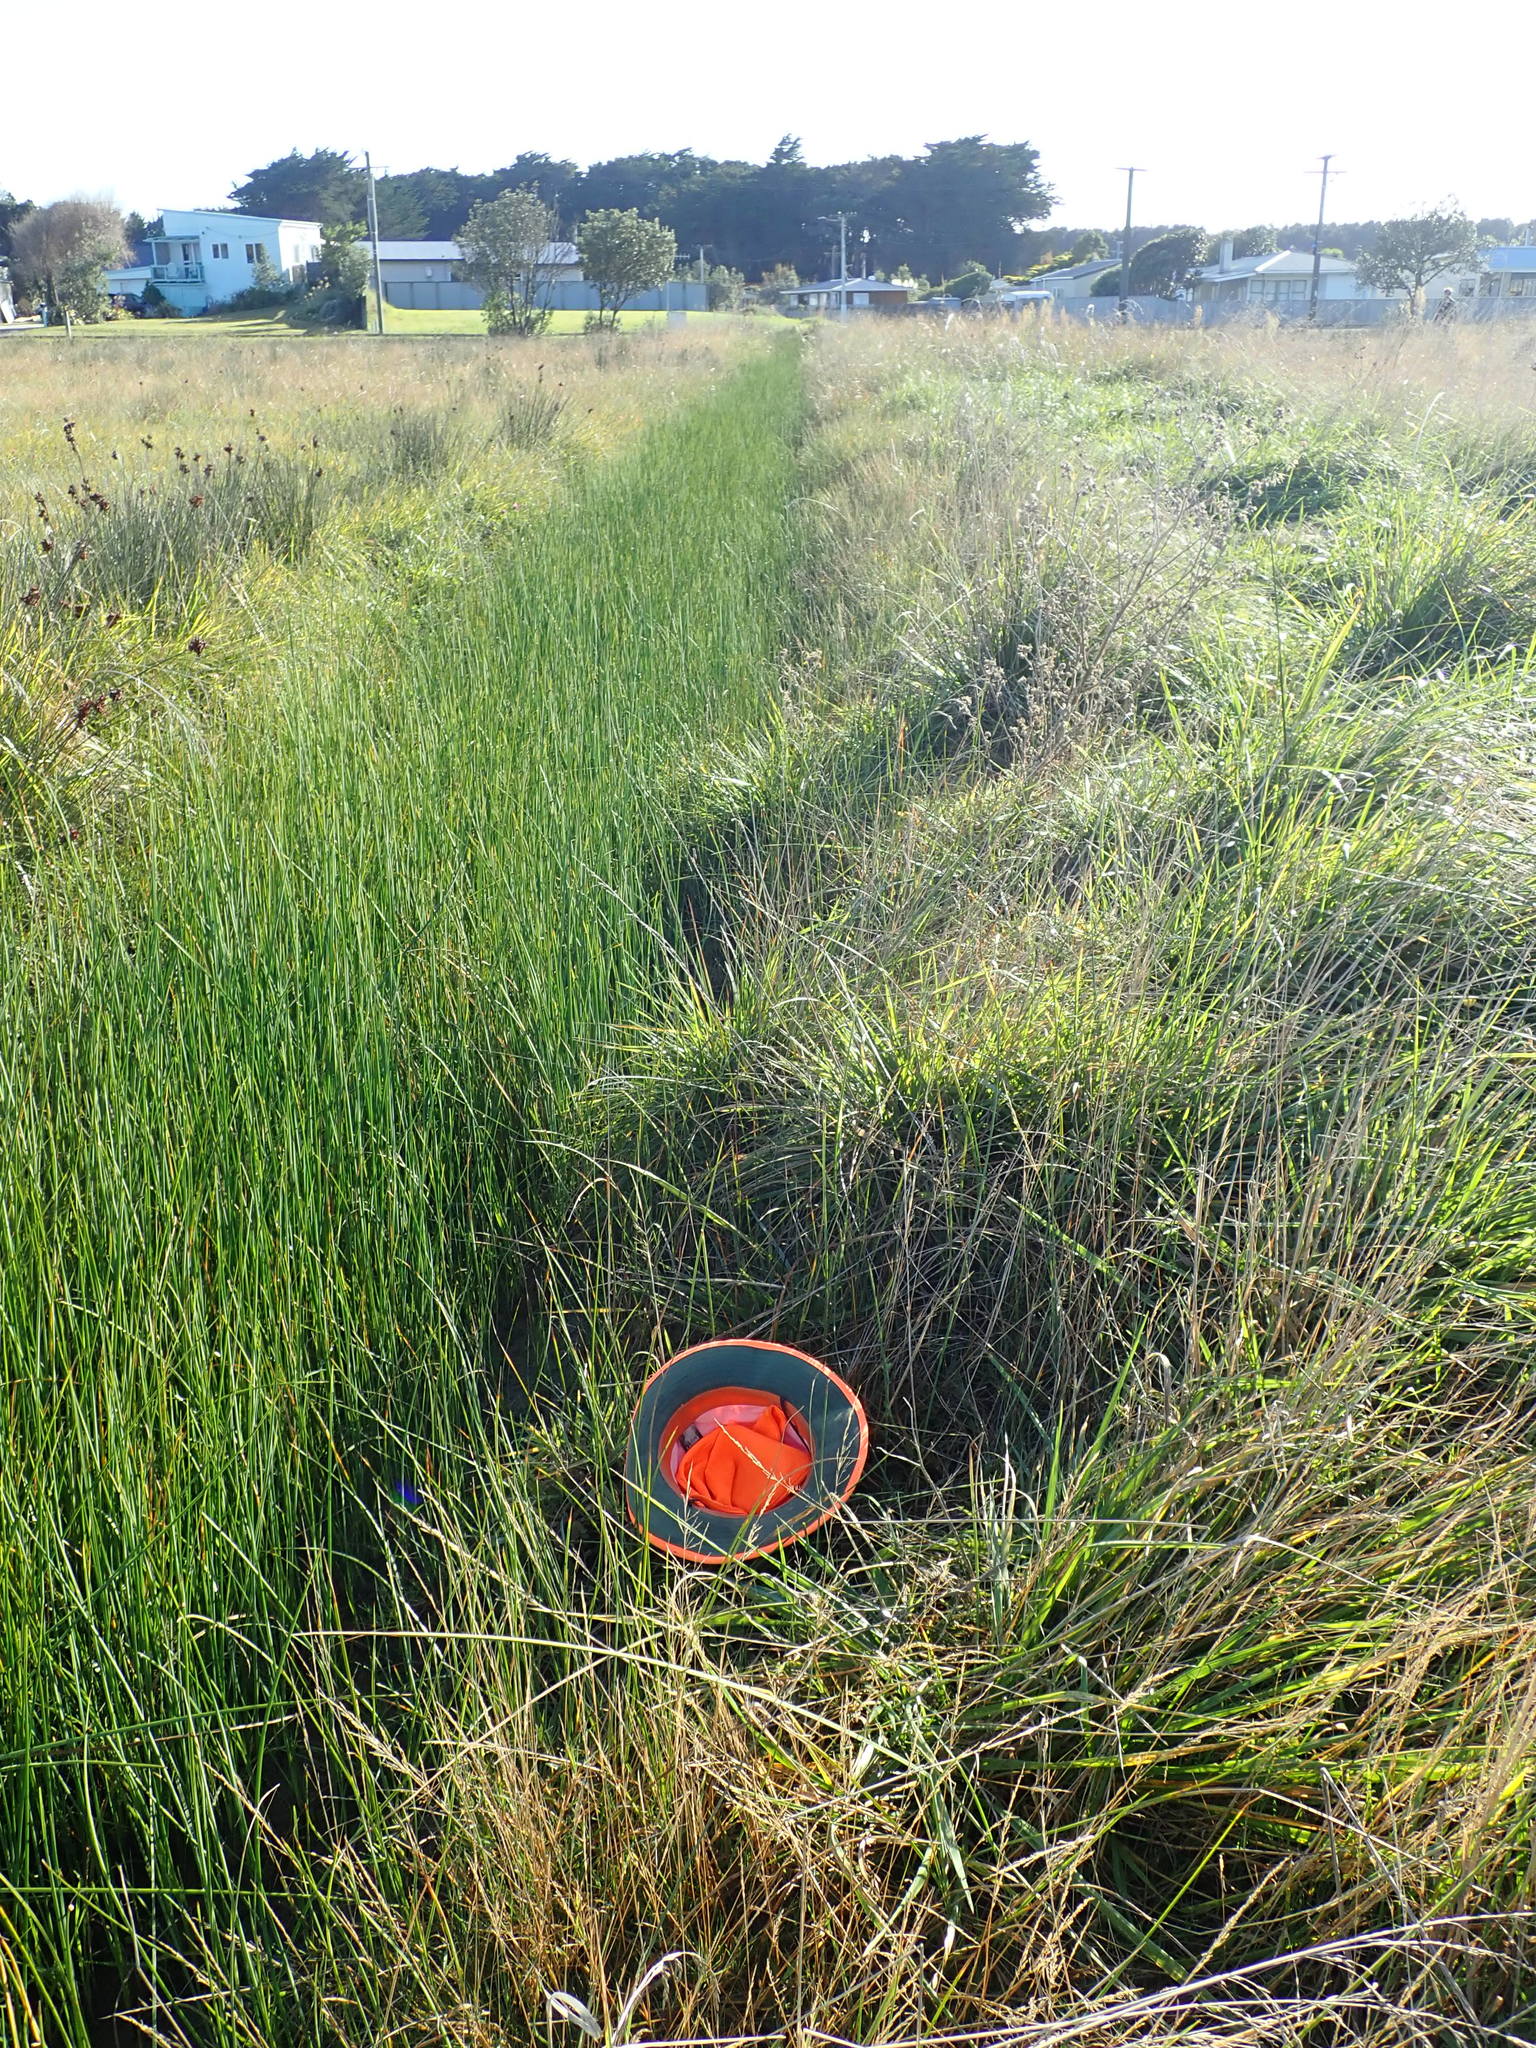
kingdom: Plantae
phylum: Tracheophyta
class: Magnoliopsida
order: Asterales
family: Campanulaceae
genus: Lobelia
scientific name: Lobelia anceps
